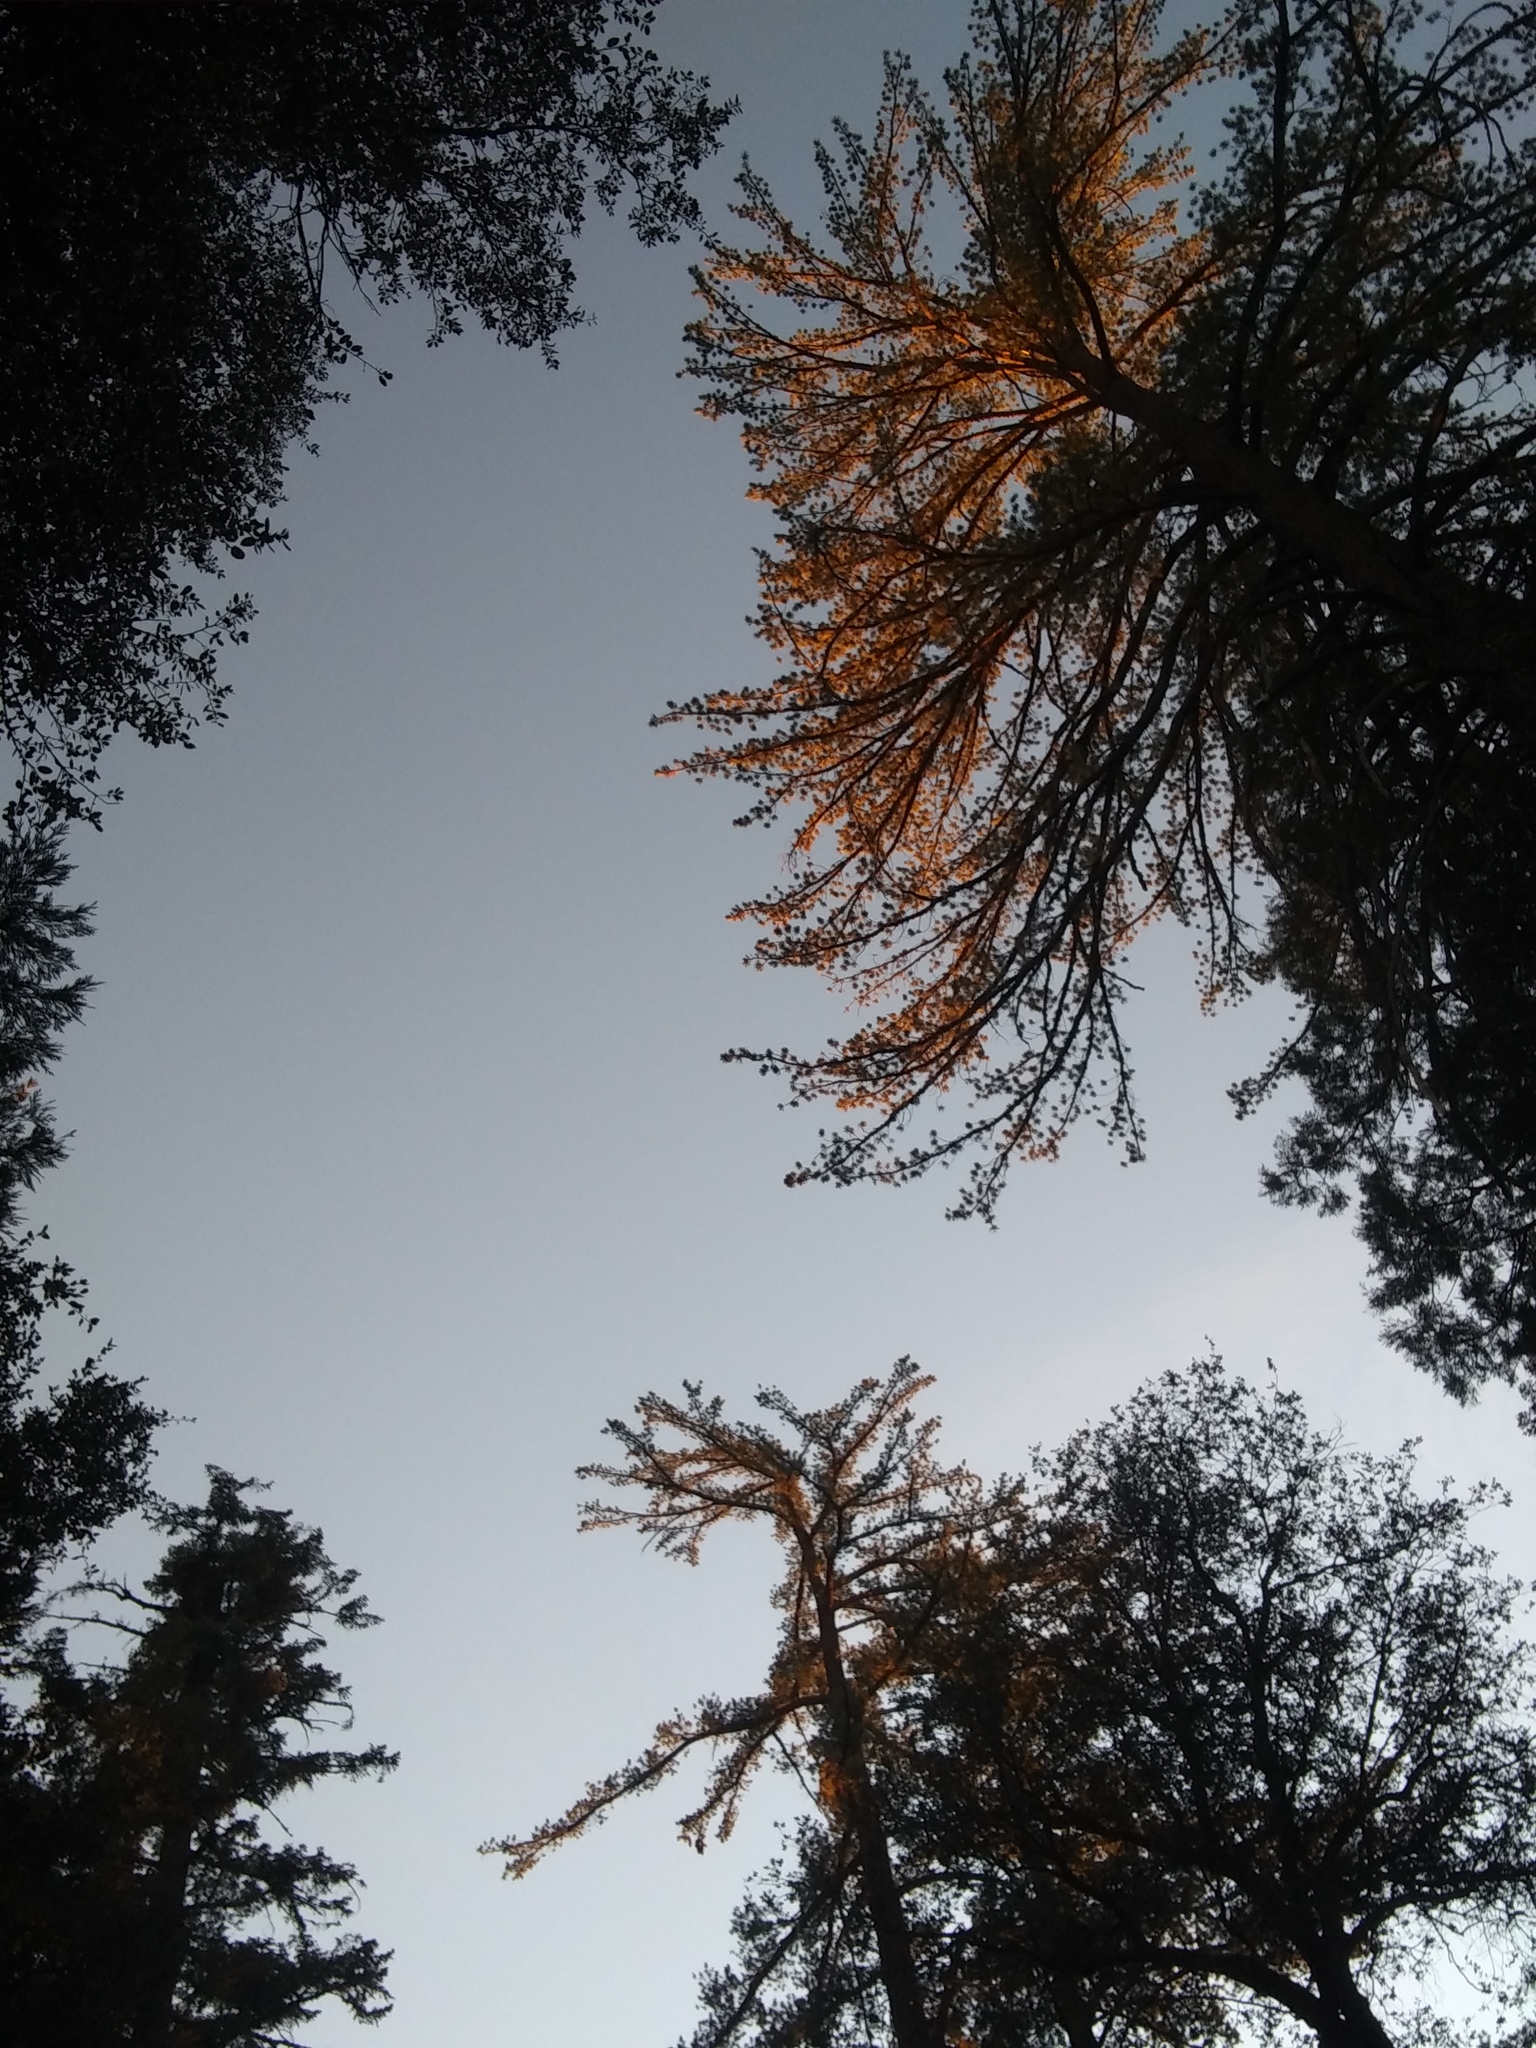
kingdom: Plantae
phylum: Tracheophyta
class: Pinopsida
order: Pinales
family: Pinaceae
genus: Pinus
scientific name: Pinus lambertiana
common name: Sugar pine
